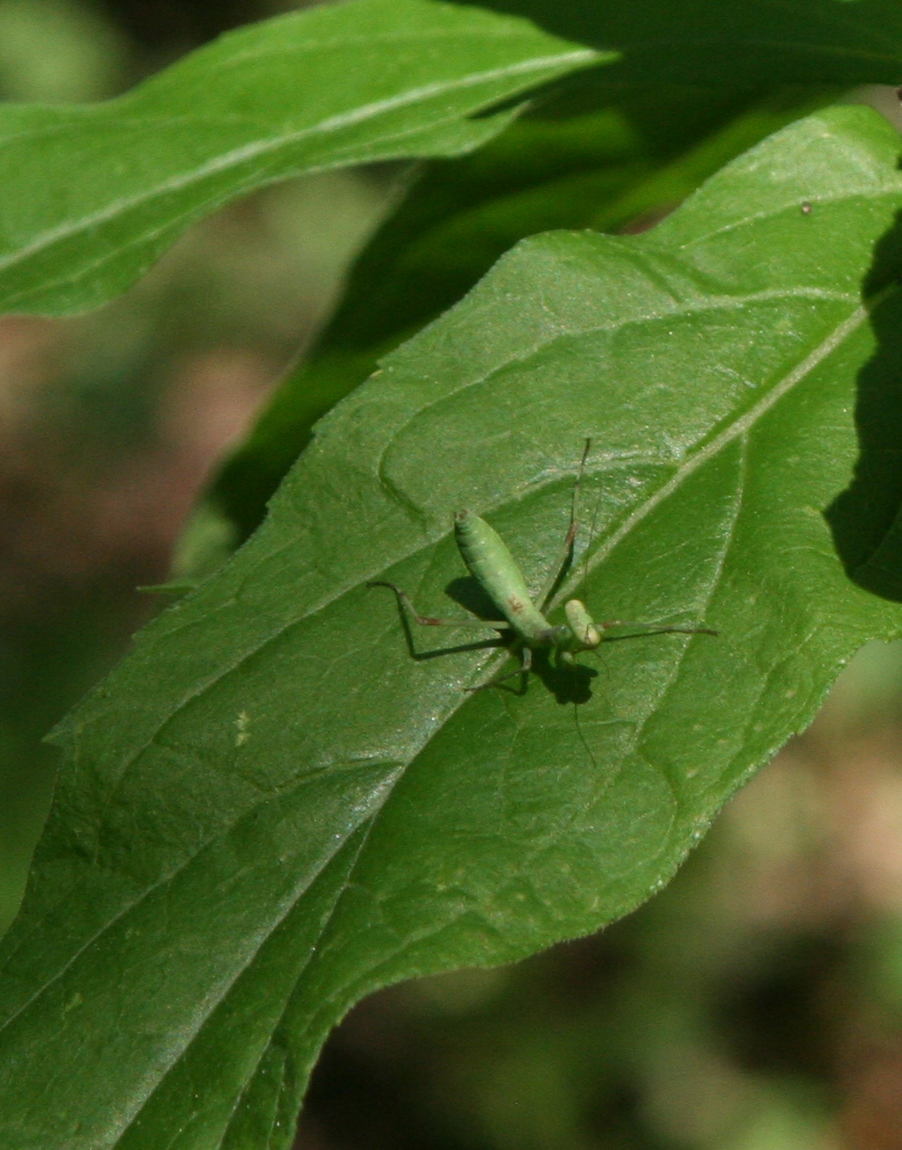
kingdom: Animalia
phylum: Arthropoda
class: Insecta
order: Mantodea
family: Mantidae
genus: Hierodula
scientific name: Hierodula transcaucasica
